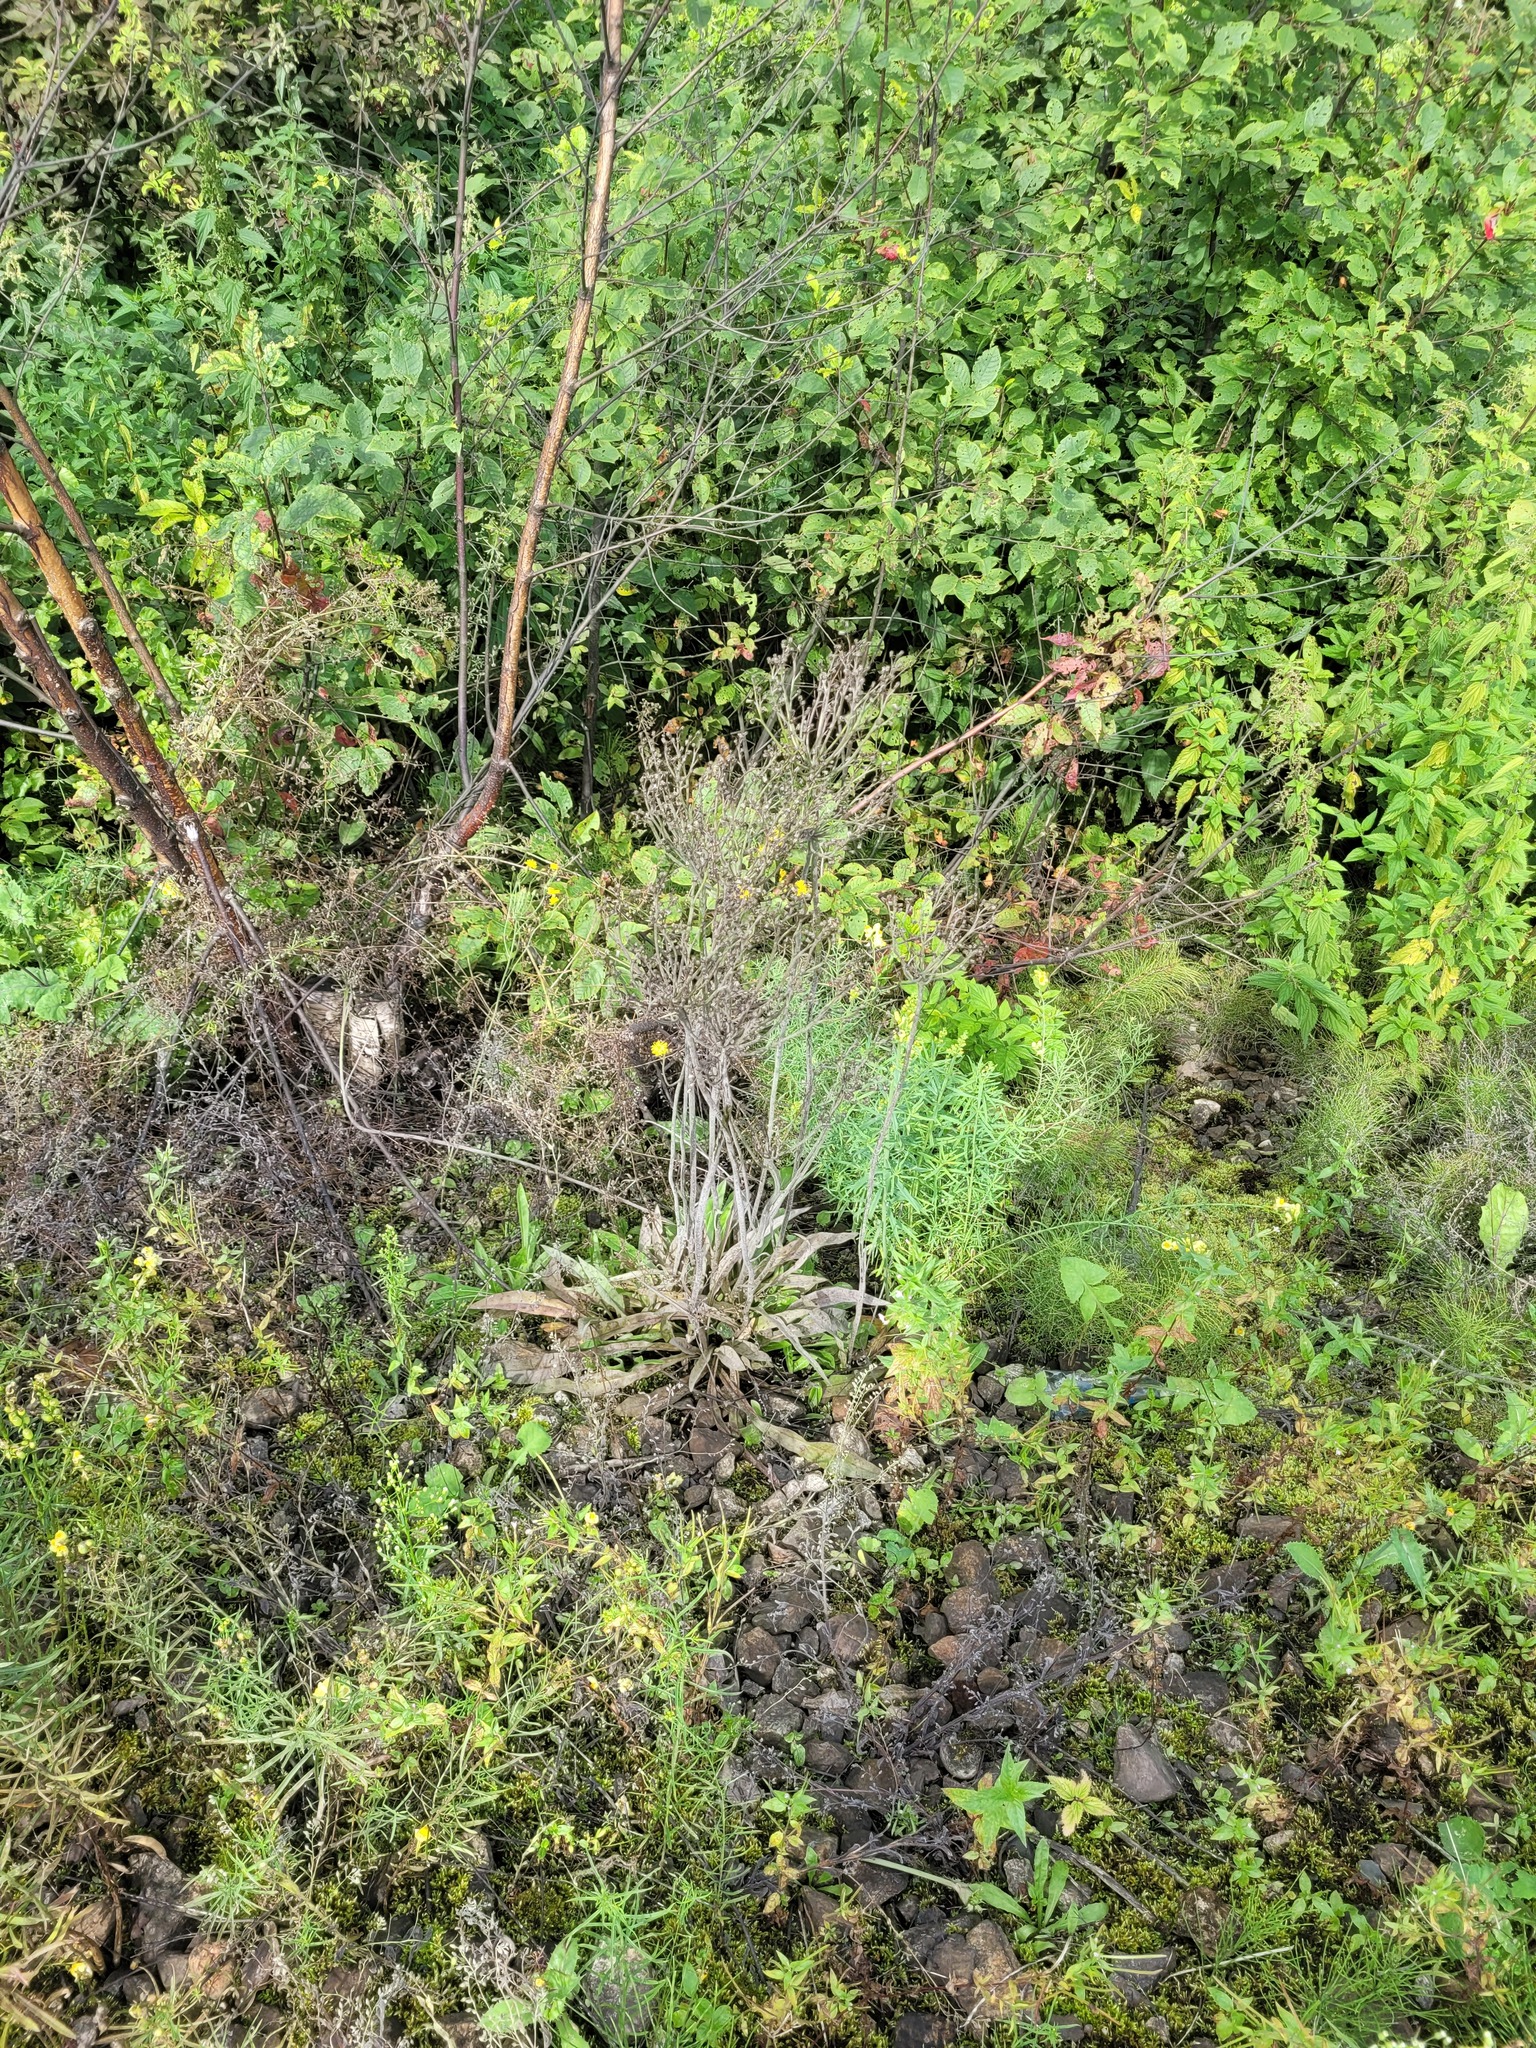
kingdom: Plantae
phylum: Tracheophyta
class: Magnoliopsida
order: Asterales
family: Asteraceae
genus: Pilosella
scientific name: Pilosella
